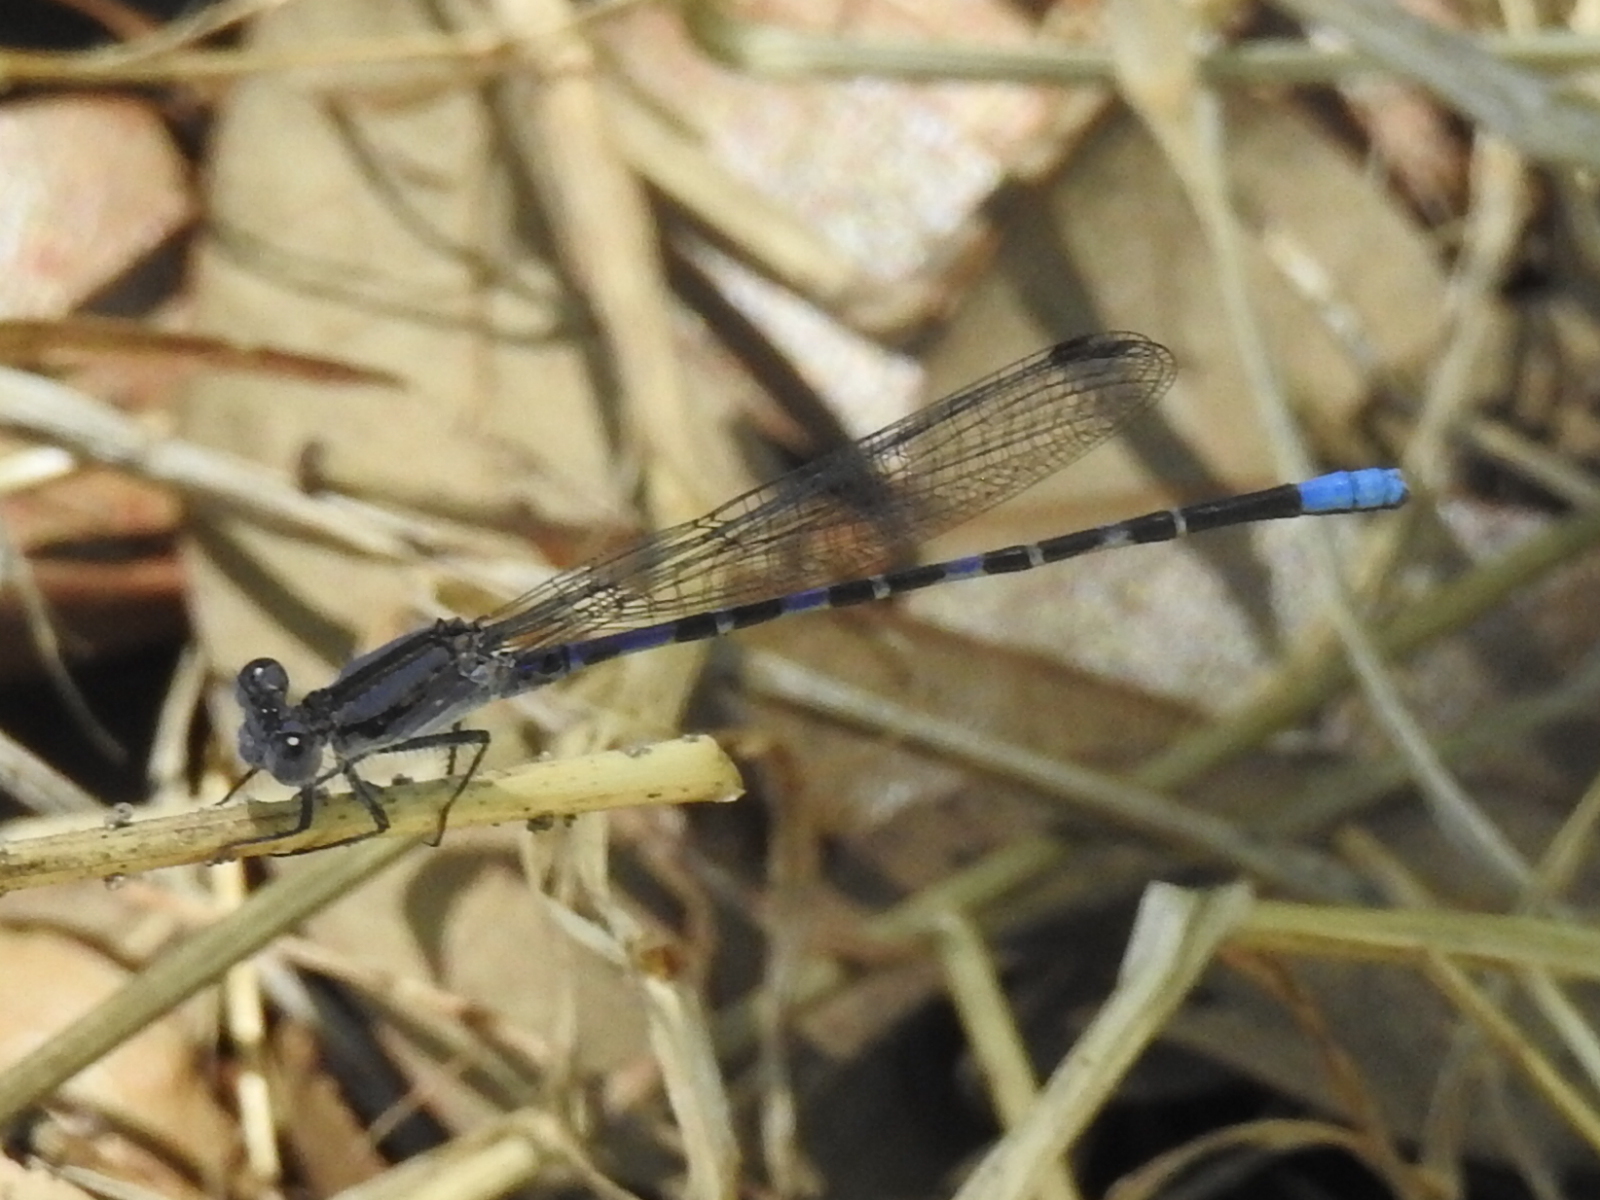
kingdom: Animalia
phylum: Arthropoda
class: Insecta
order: Odonata
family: Coenagrionidae
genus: Argia
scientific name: Argia immunda
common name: Kiowa dancer
